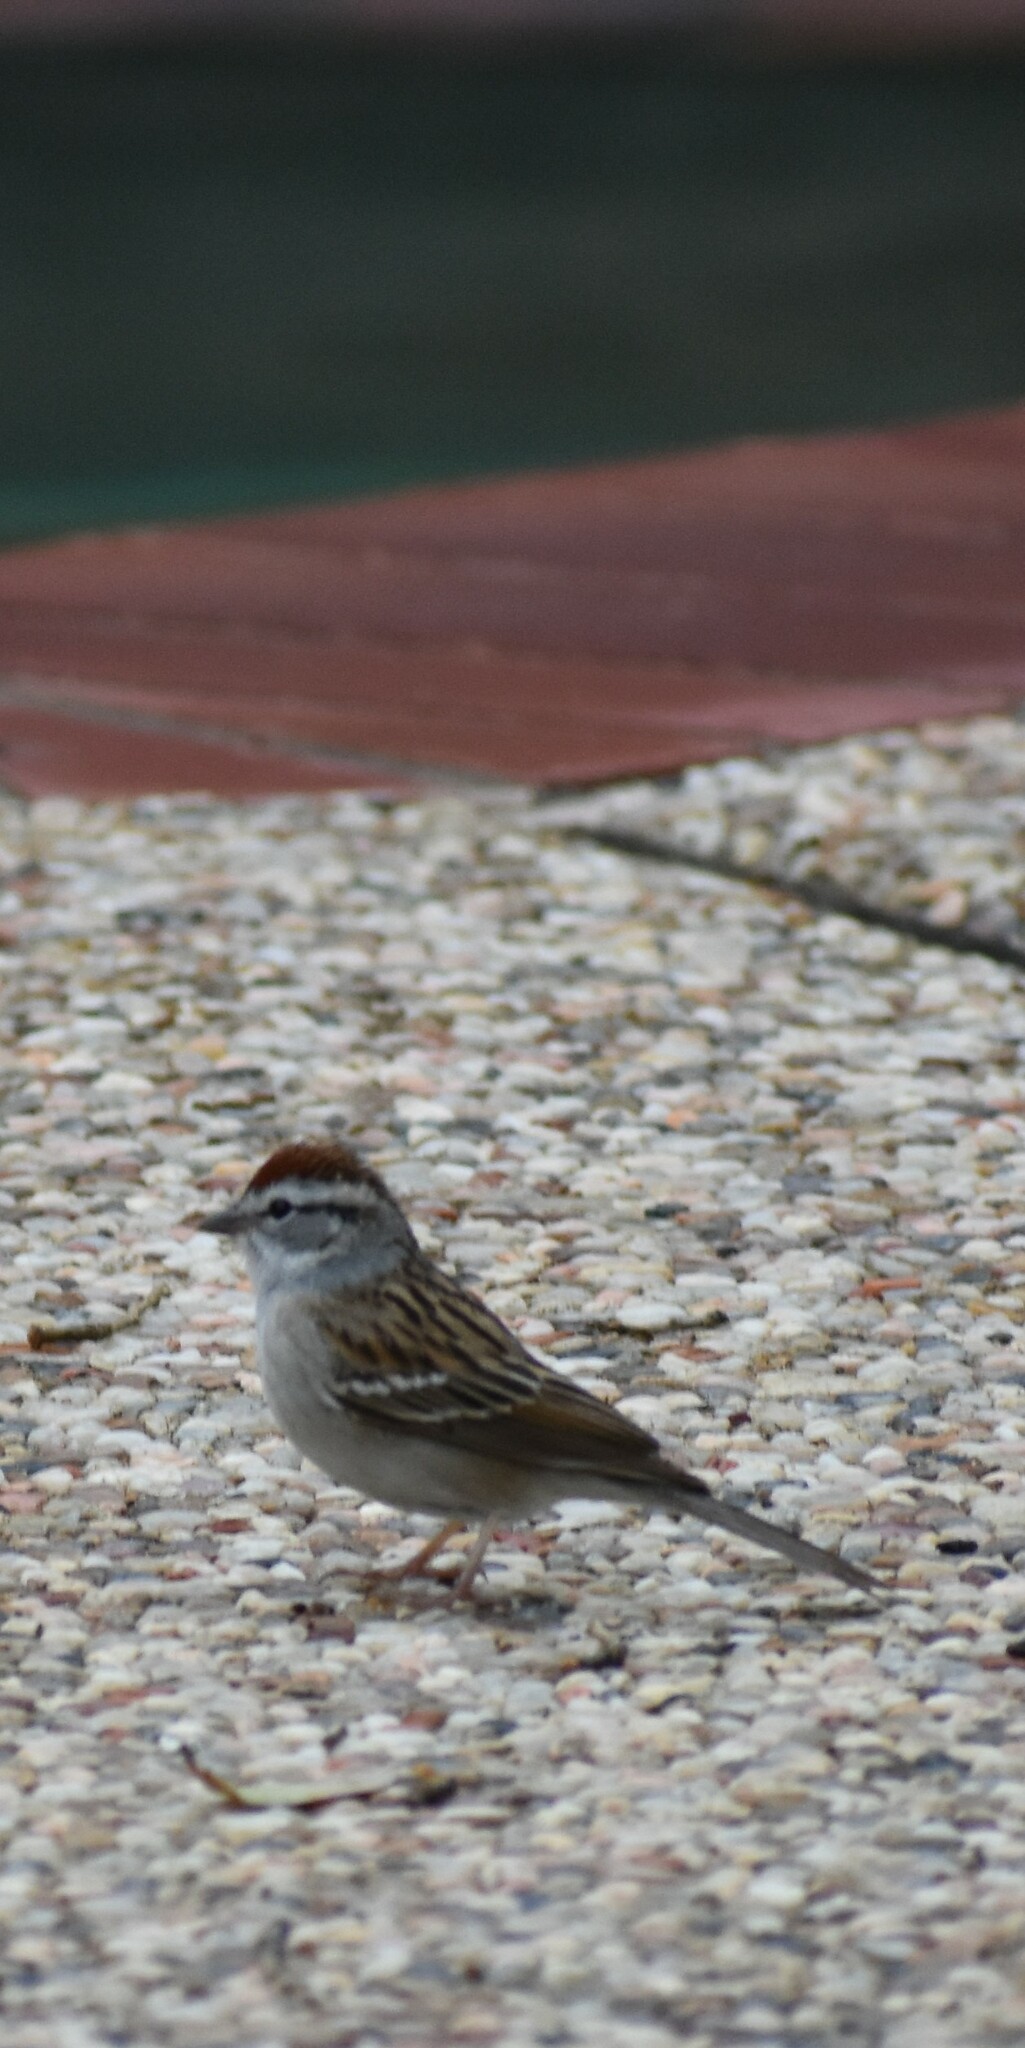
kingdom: Animalia
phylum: Chordata
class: Aves
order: Passeriformes
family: Passerellidae
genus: Spizella
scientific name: Spizella passerina
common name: Chipping sparrow
